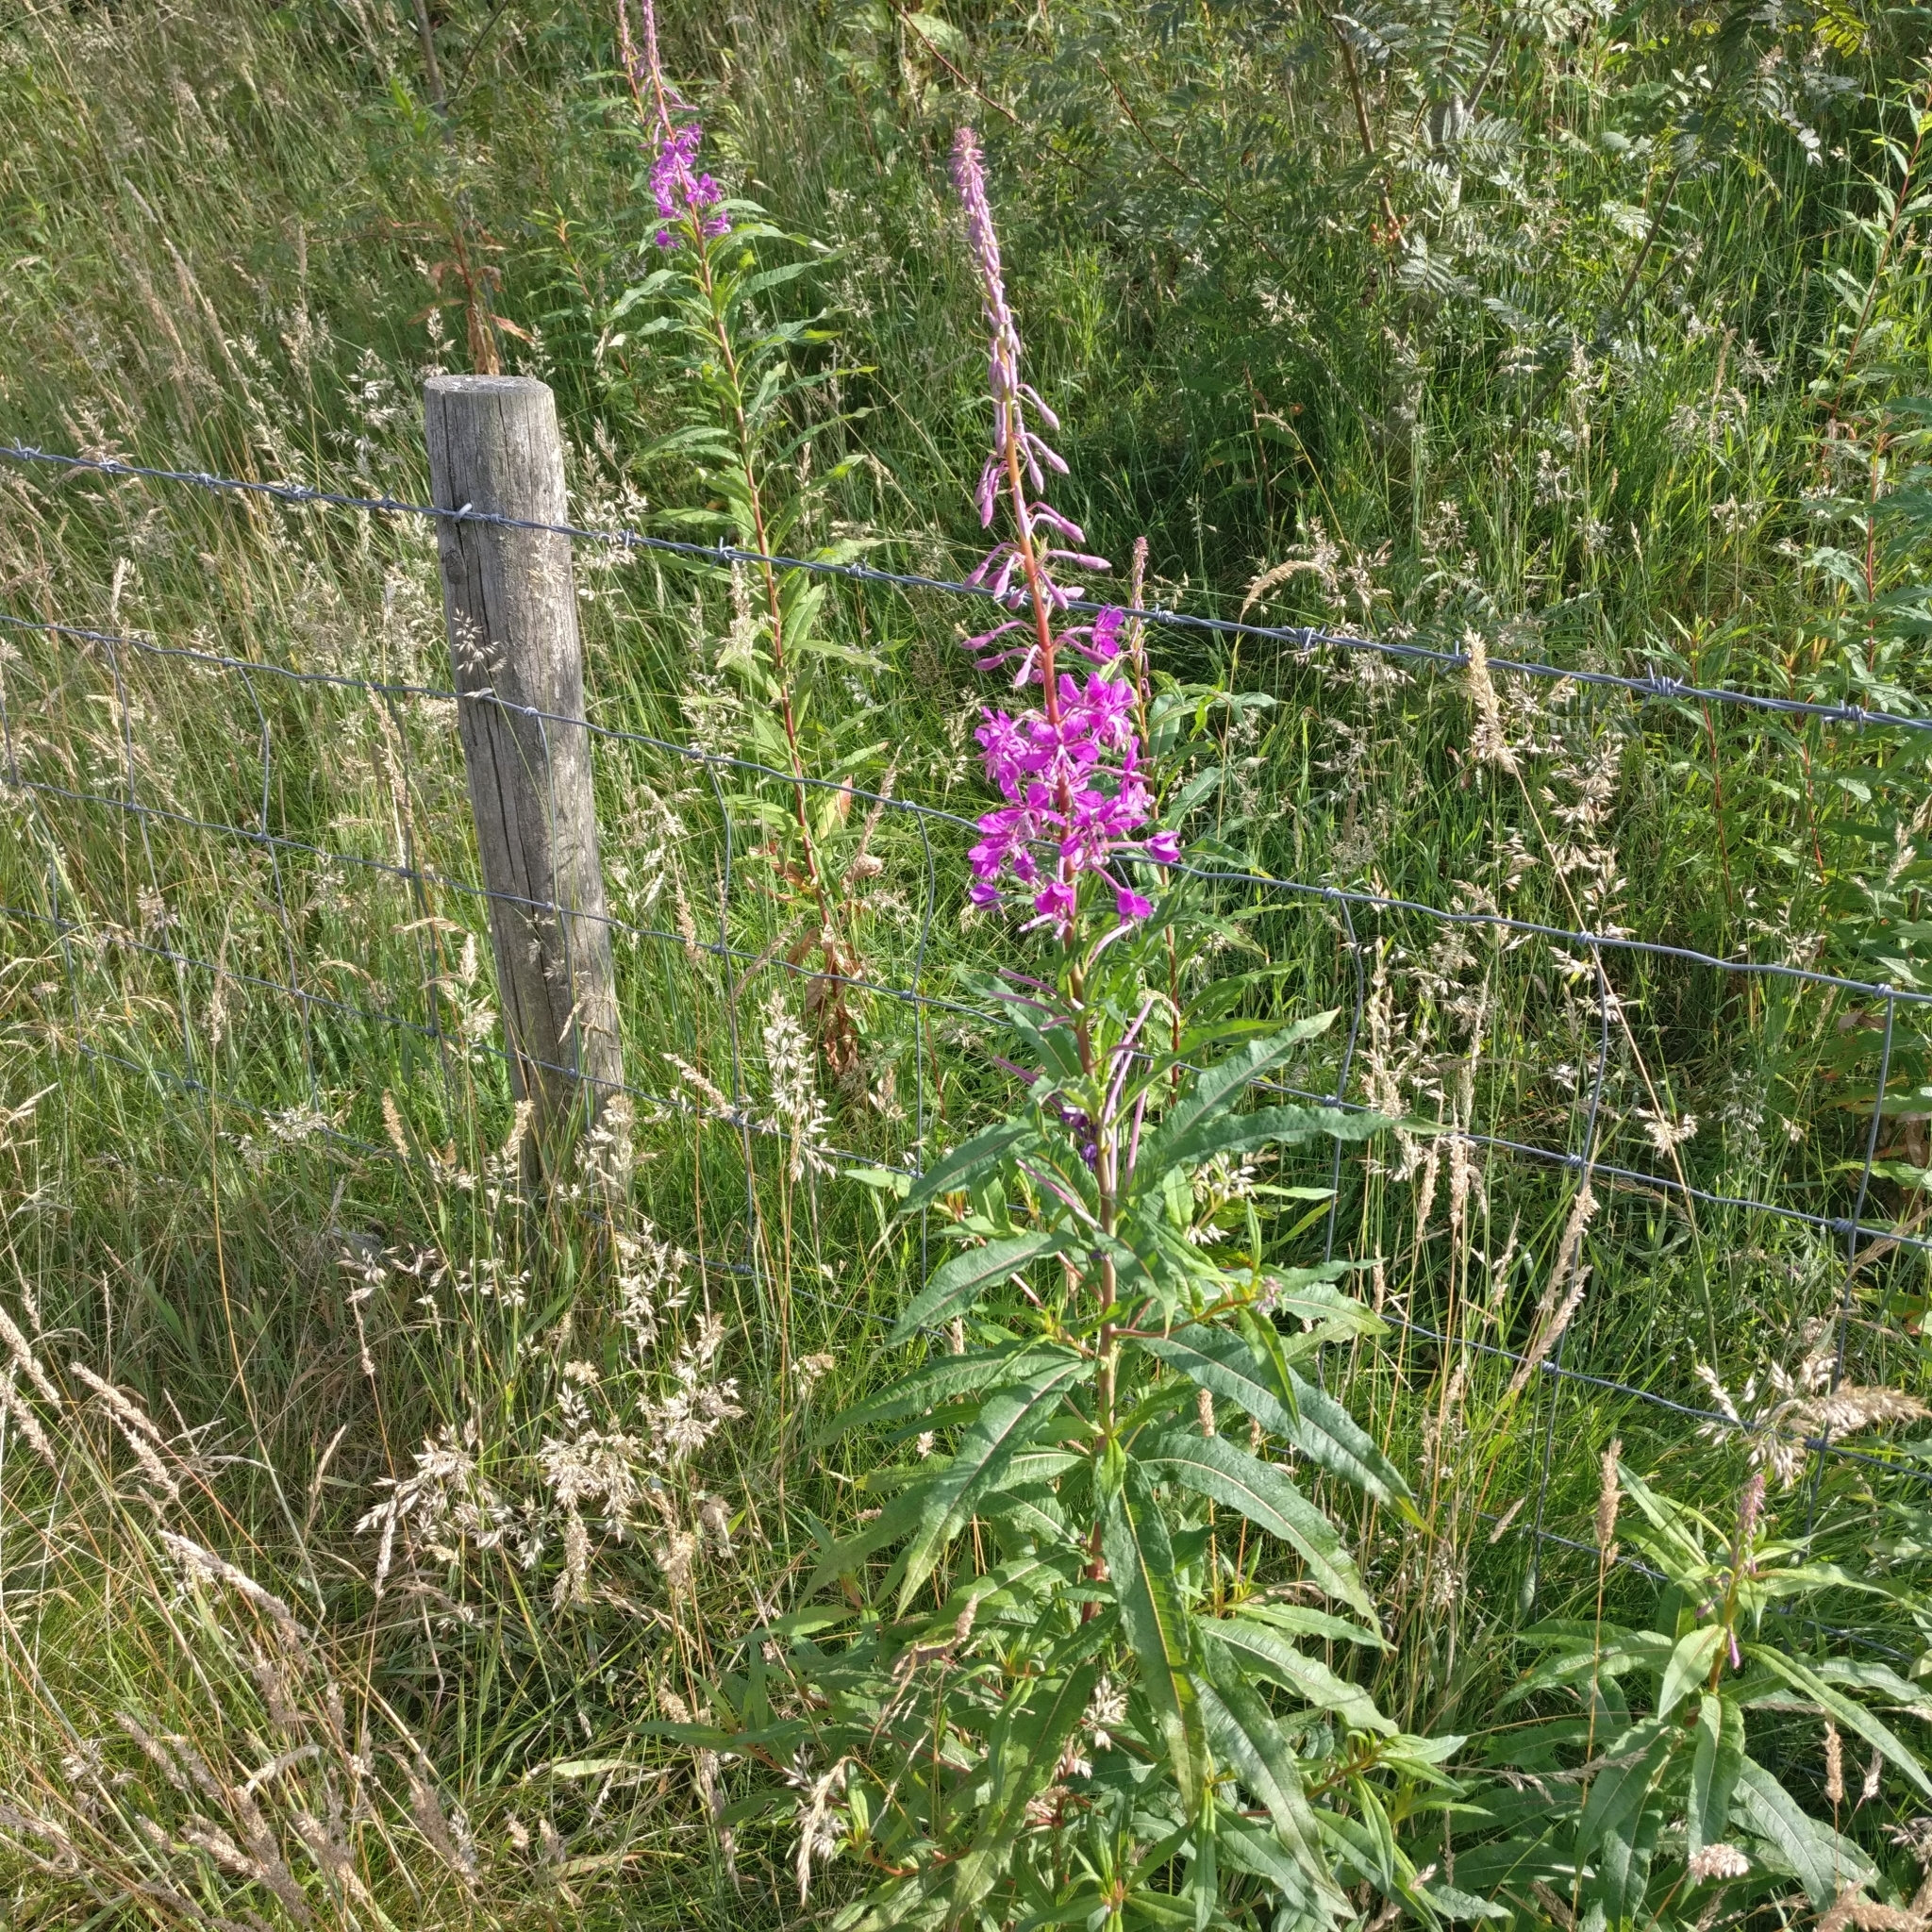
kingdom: Plantae
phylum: Tracheophyta
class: Magnoliopsida
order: Myrtales
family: Onagraceae
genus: Chamaenerion
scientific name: Chamaenerion angustifolium
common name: Fireweed
